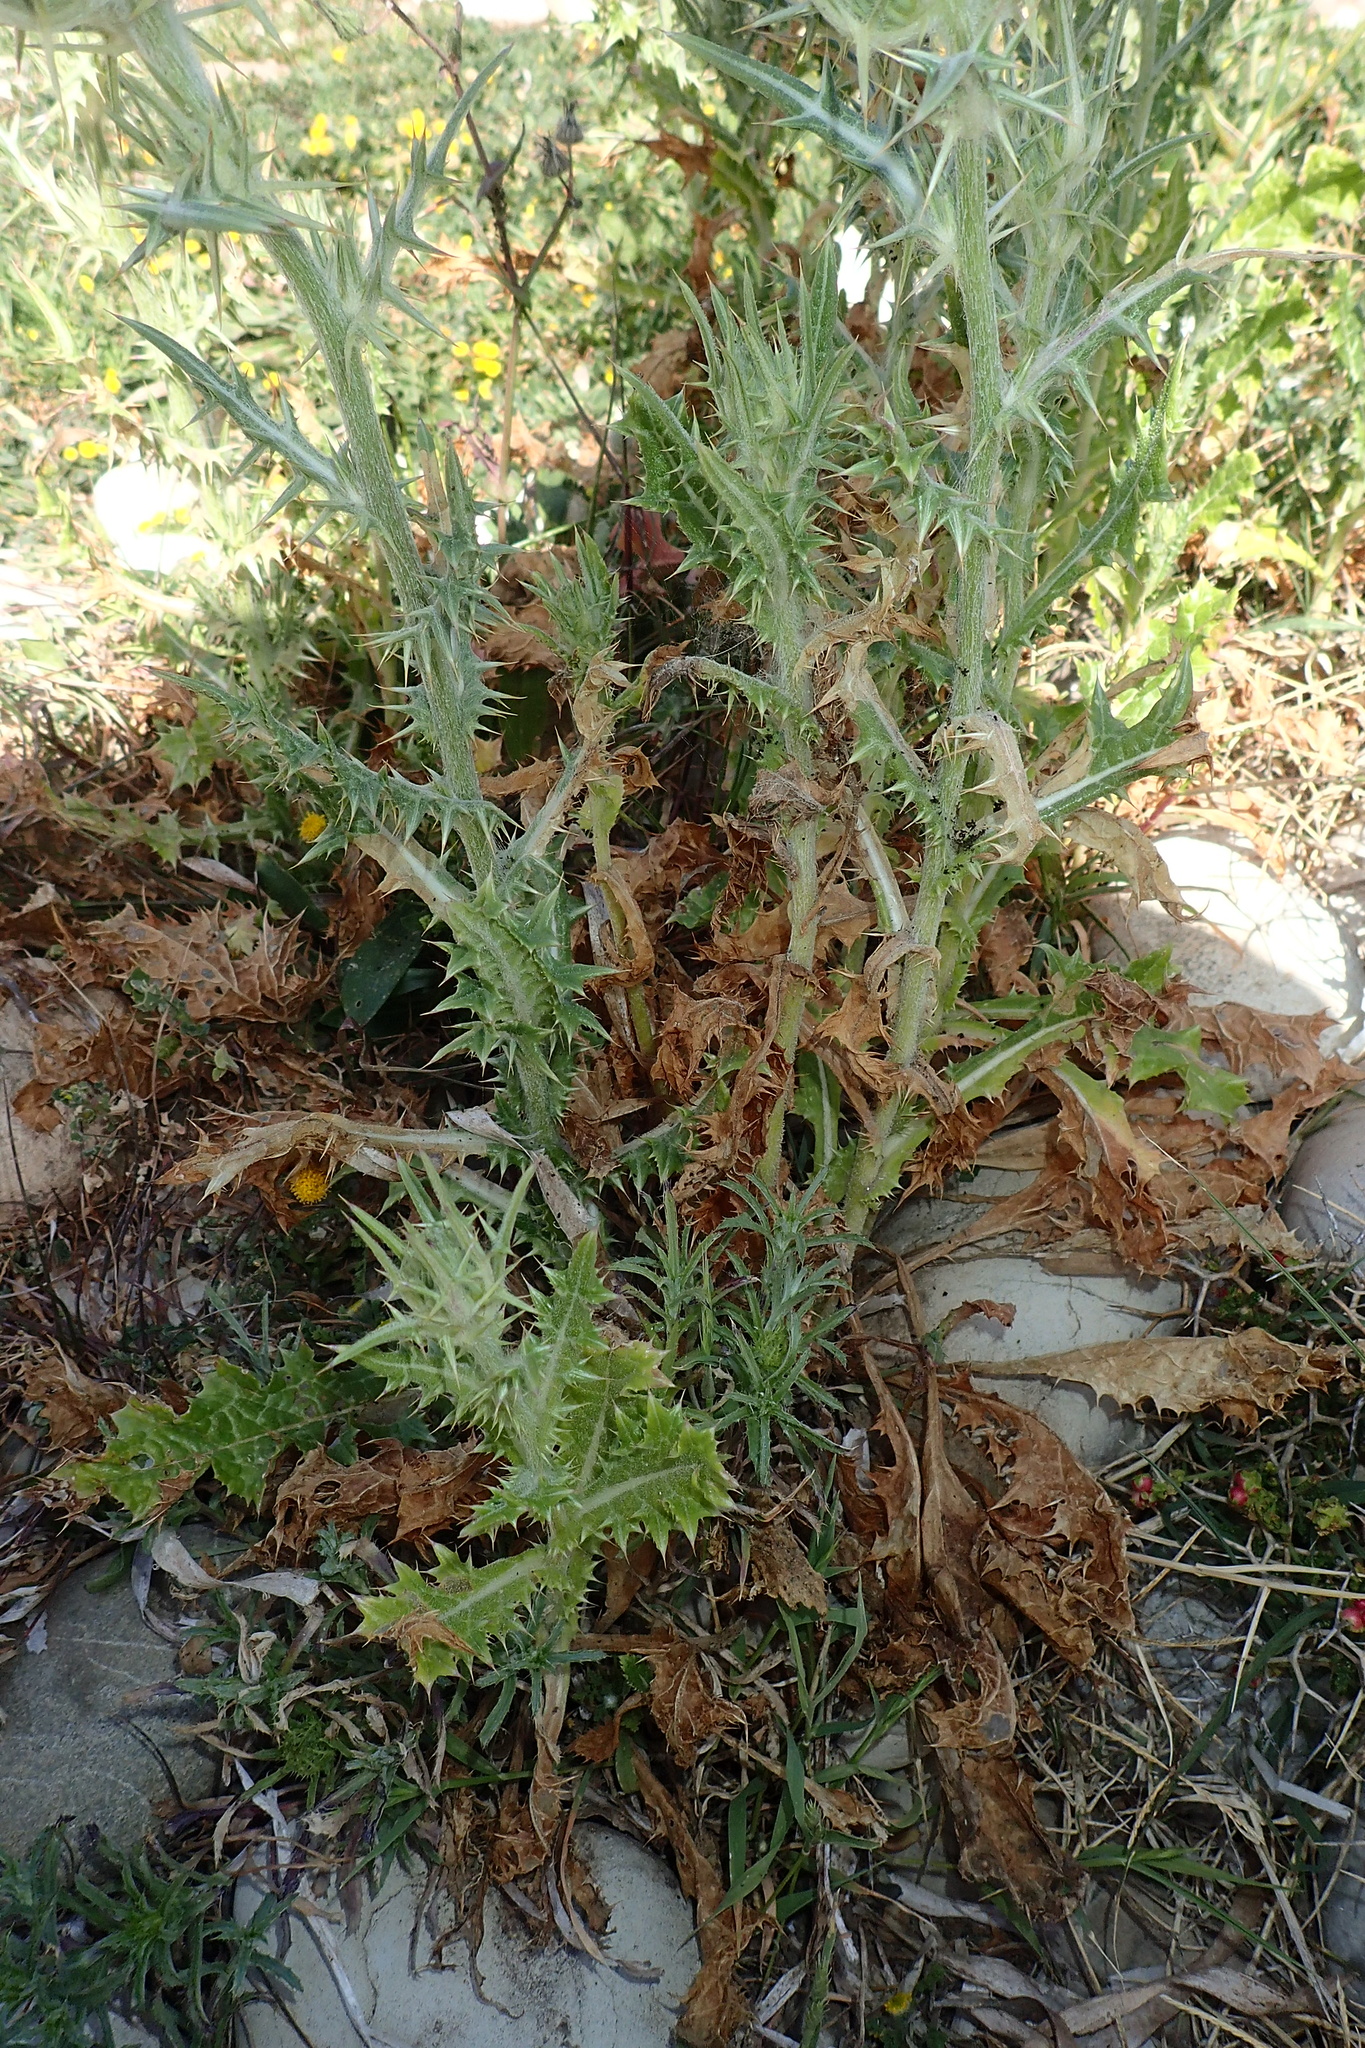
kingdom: Plantae
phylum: Tracheophyta
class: Magnoliopsida
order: Asterales
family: Asteraceae
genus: Notobasis
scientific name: Notobasis syriaca
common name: Syrian thistle
